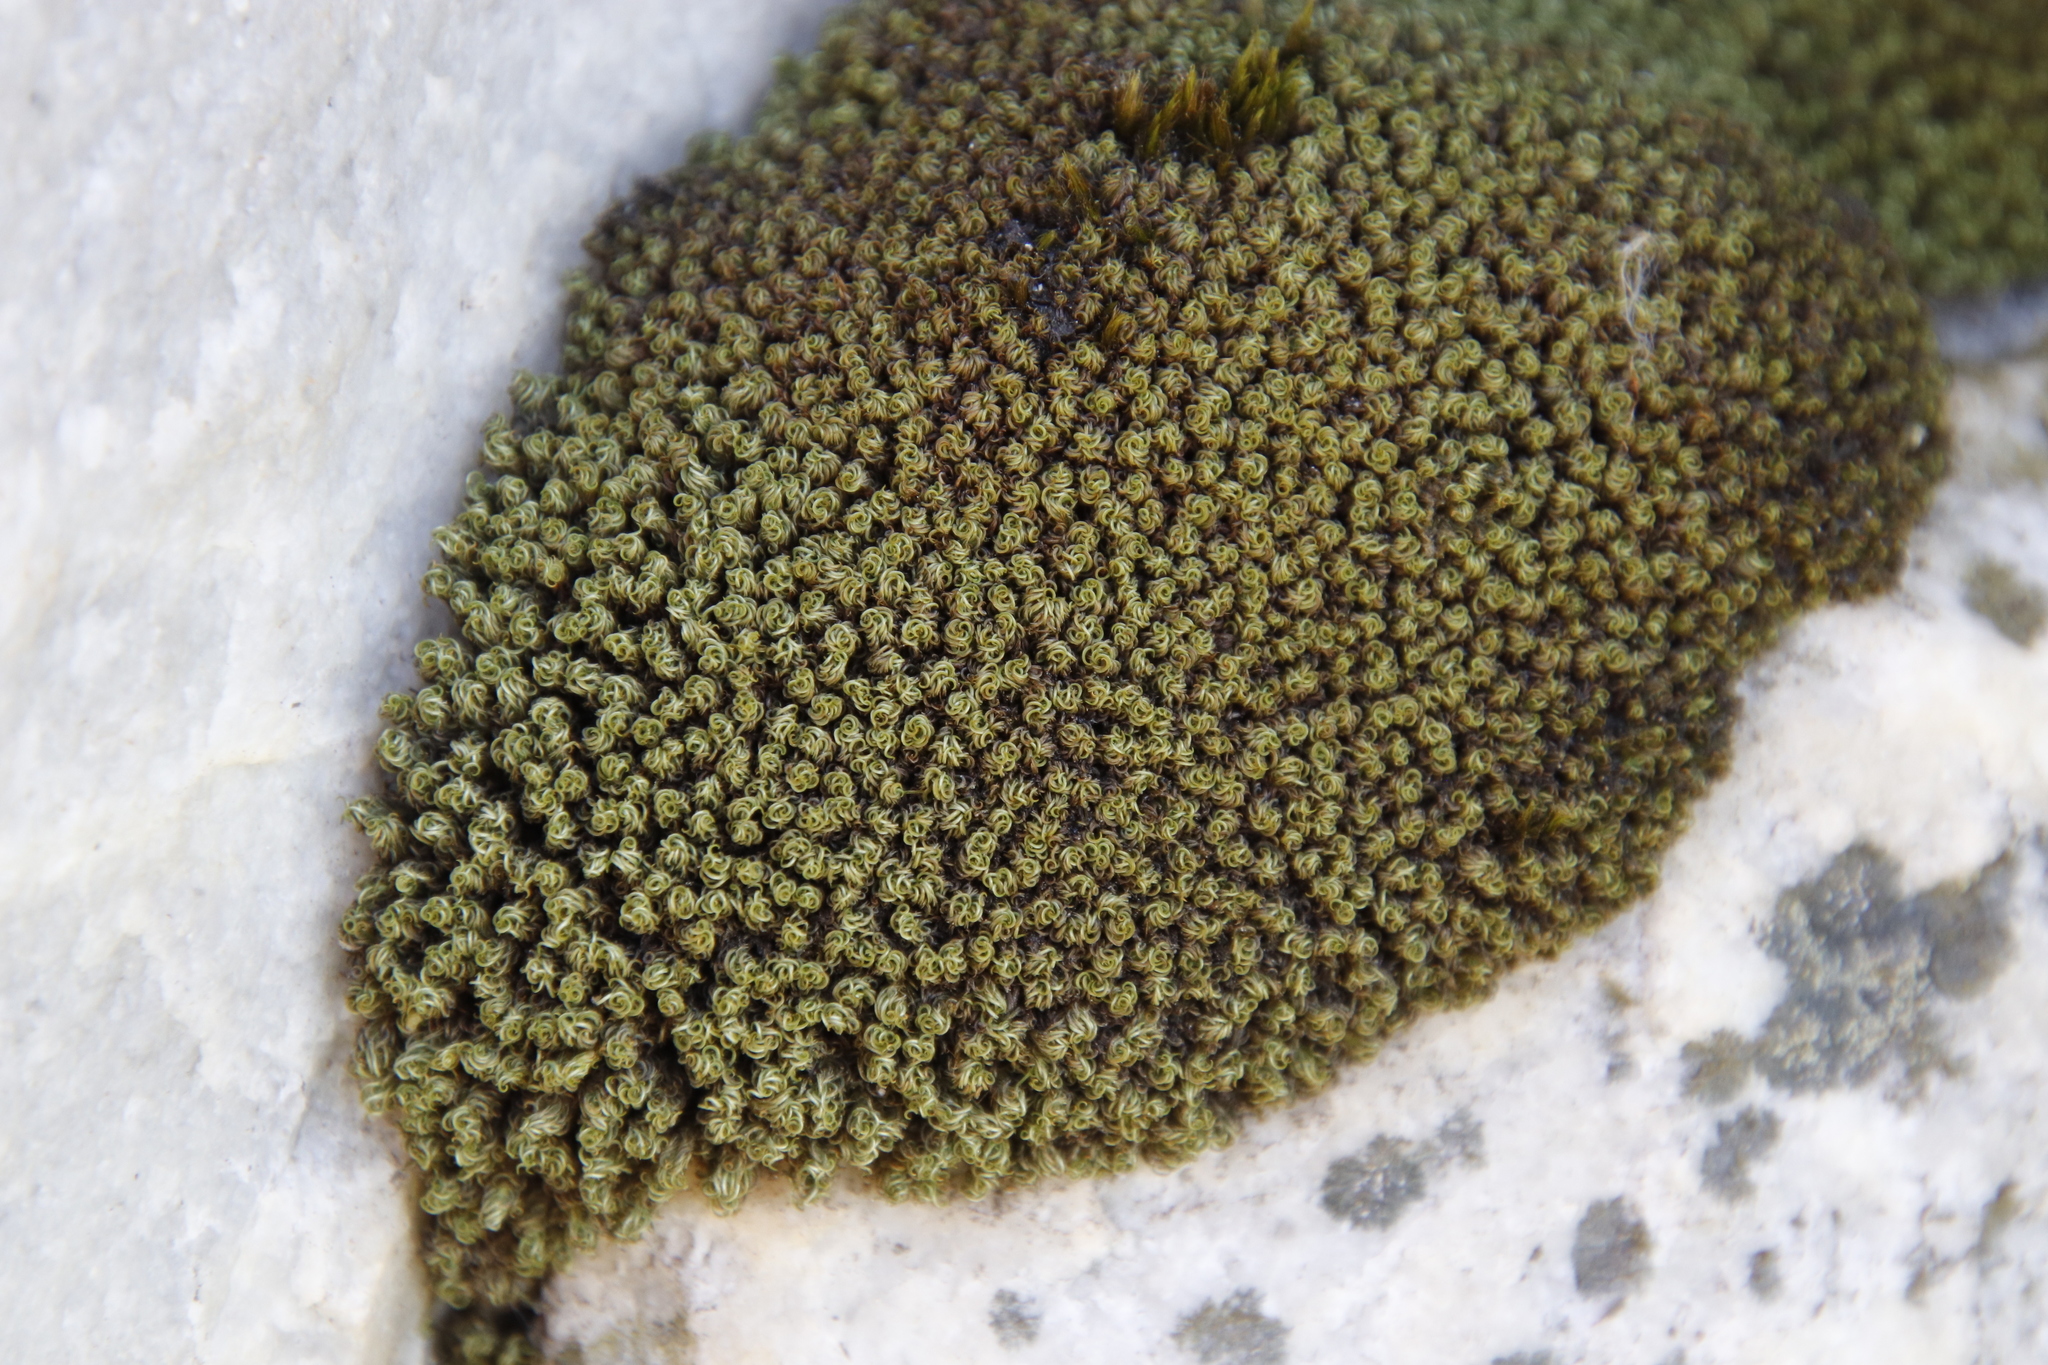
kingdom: Plantae
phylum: Bryophyta
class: Bryopsida
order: Dicranales
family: Hypodontiaceae
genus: Hypodontium
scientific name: Hypodontium dregei
